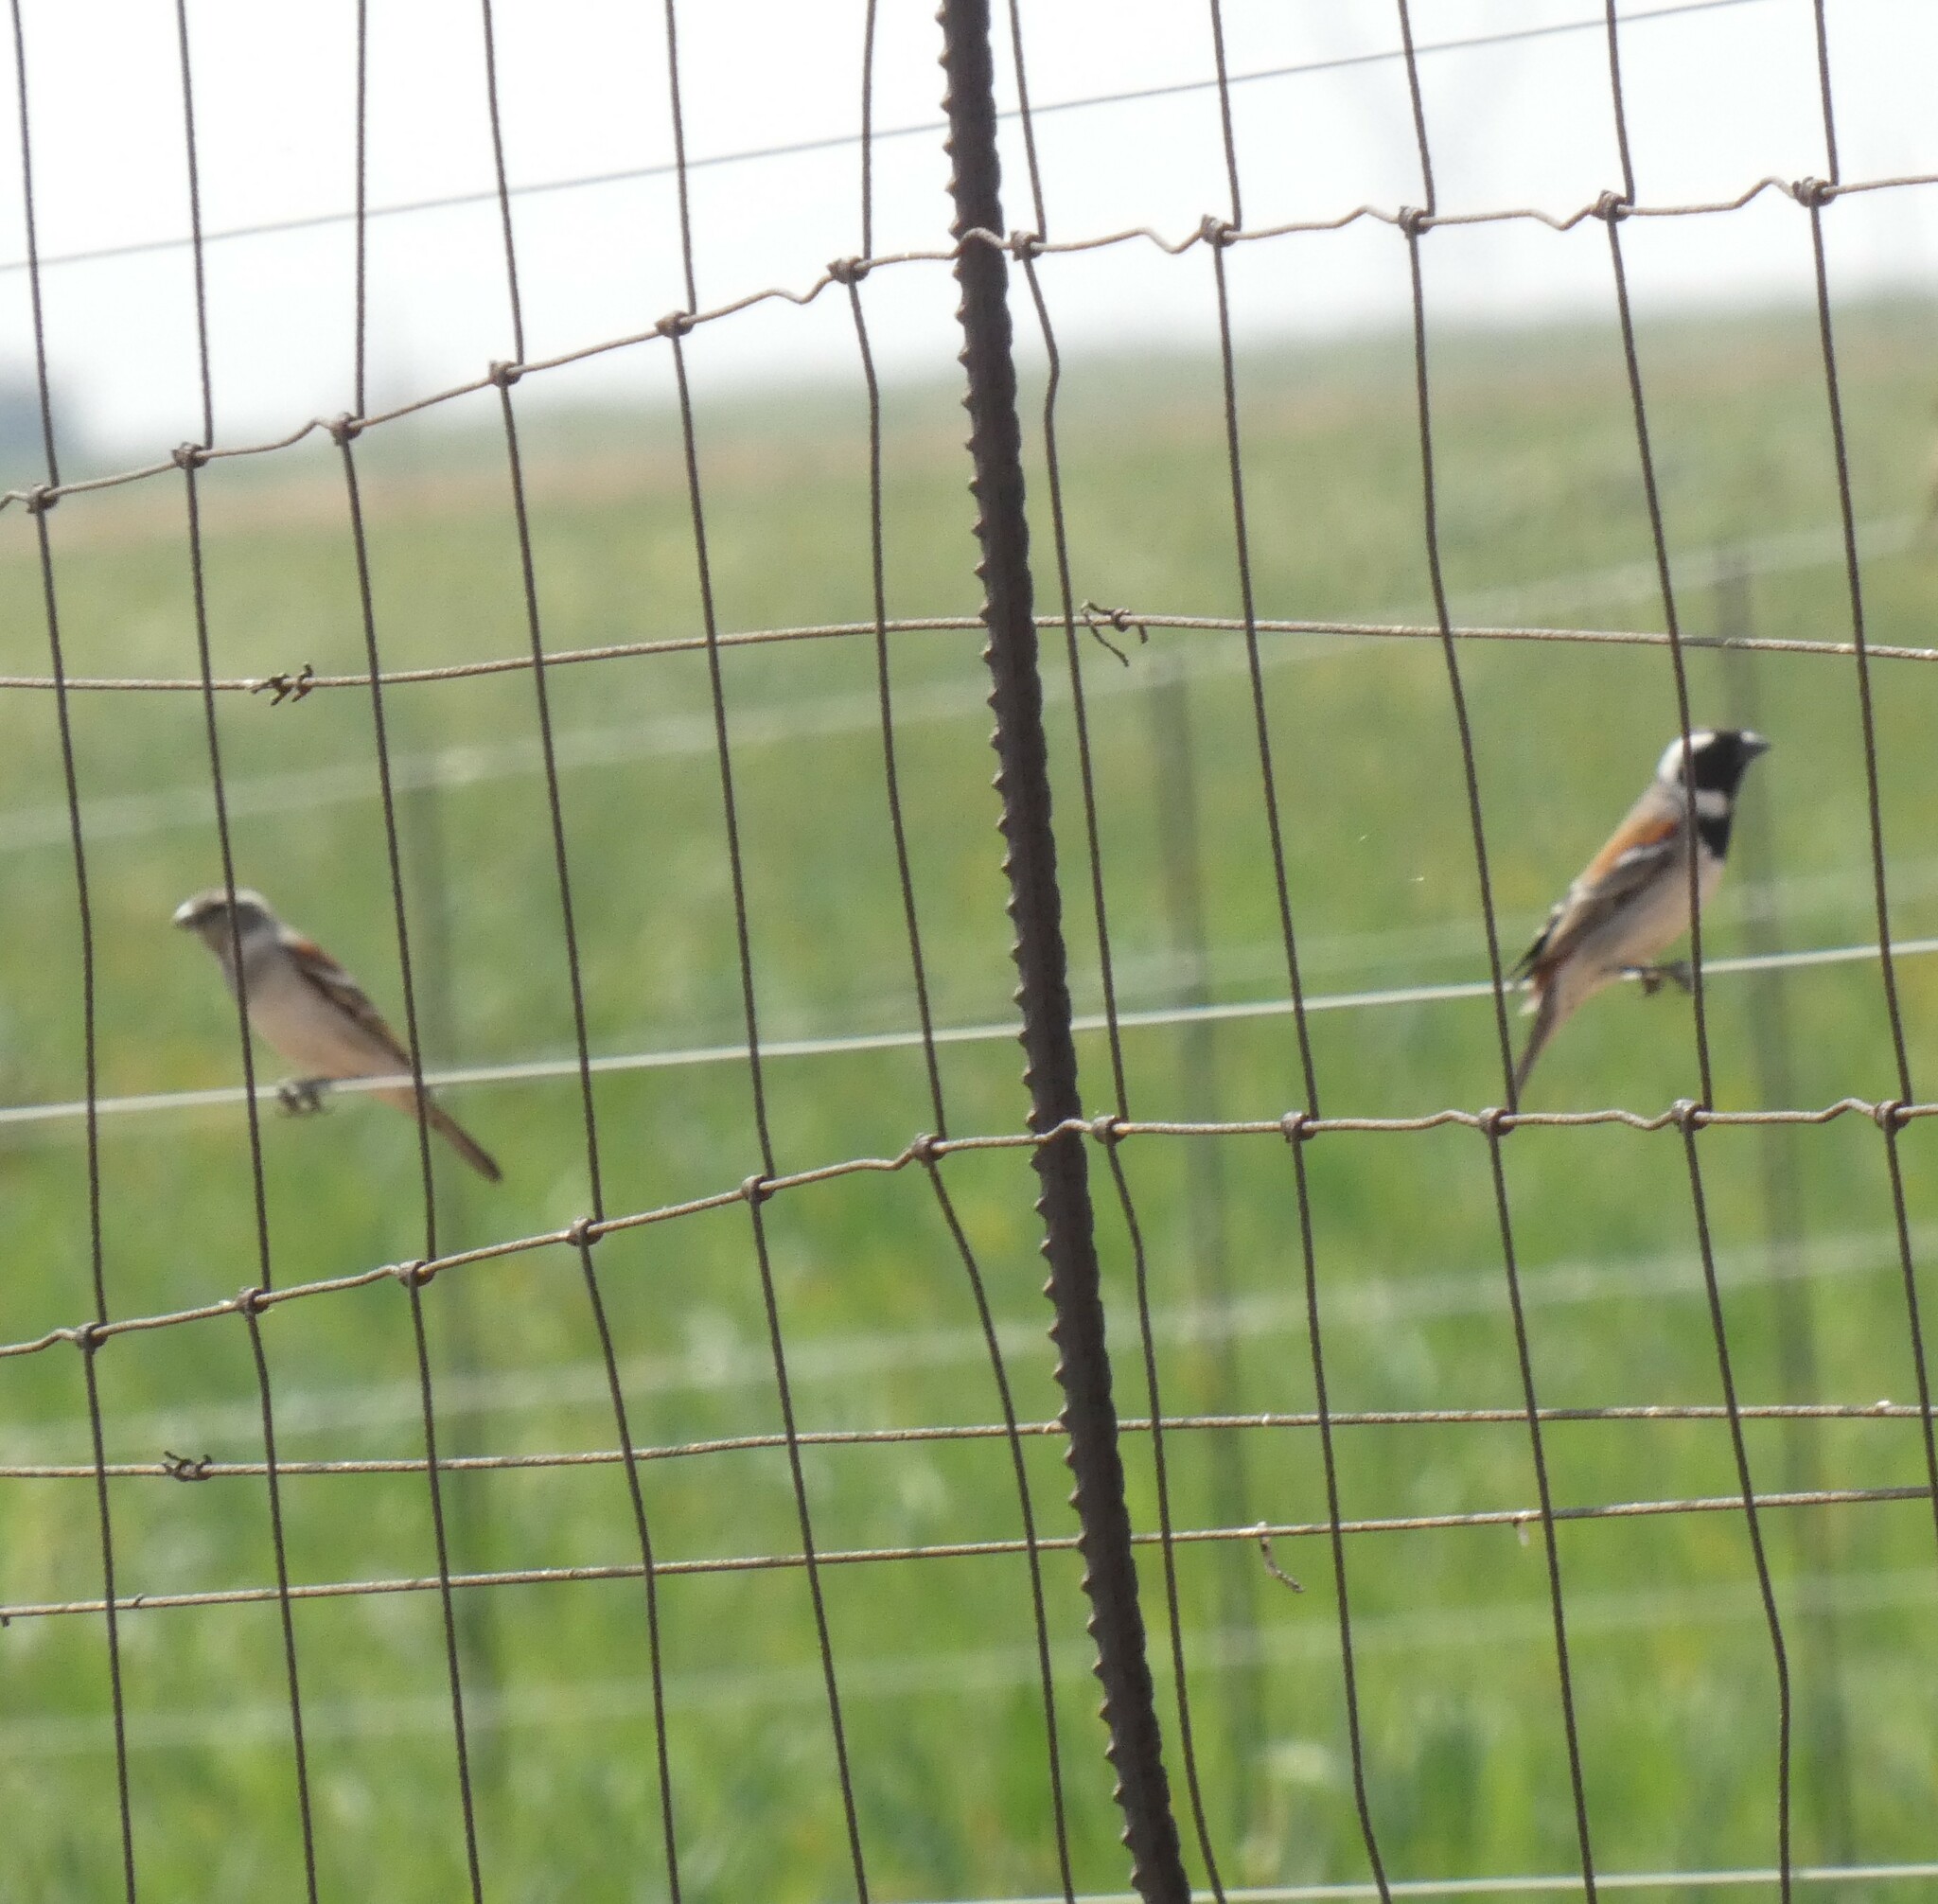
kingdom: Animalia
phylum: Chordata
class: Aves
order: Passeriformes
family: Passeridae
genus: Passer
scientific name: Passer melanurus
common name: Cape sparrow
